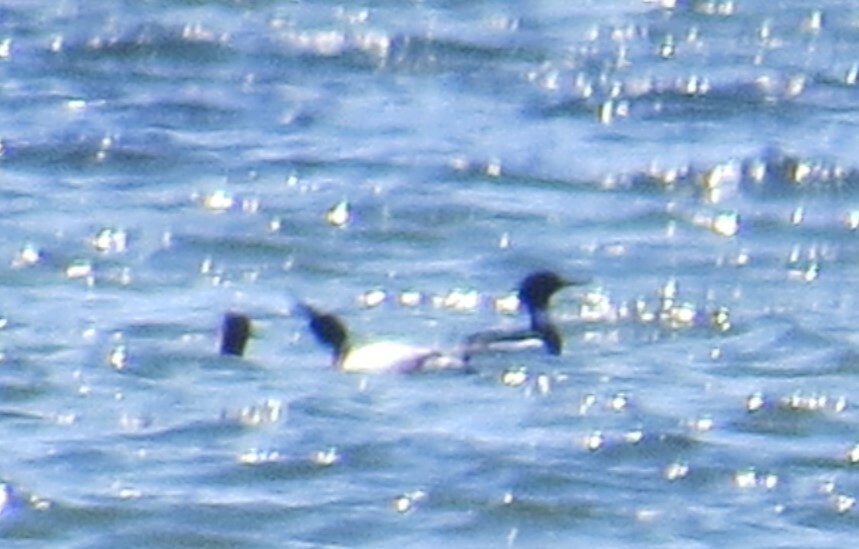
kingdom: Animalia
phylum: Chordata
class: Aves
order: Anseriformes
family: Anatidae
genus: Mergus
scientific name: Mergus serrator
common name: Red-breasted merganser
